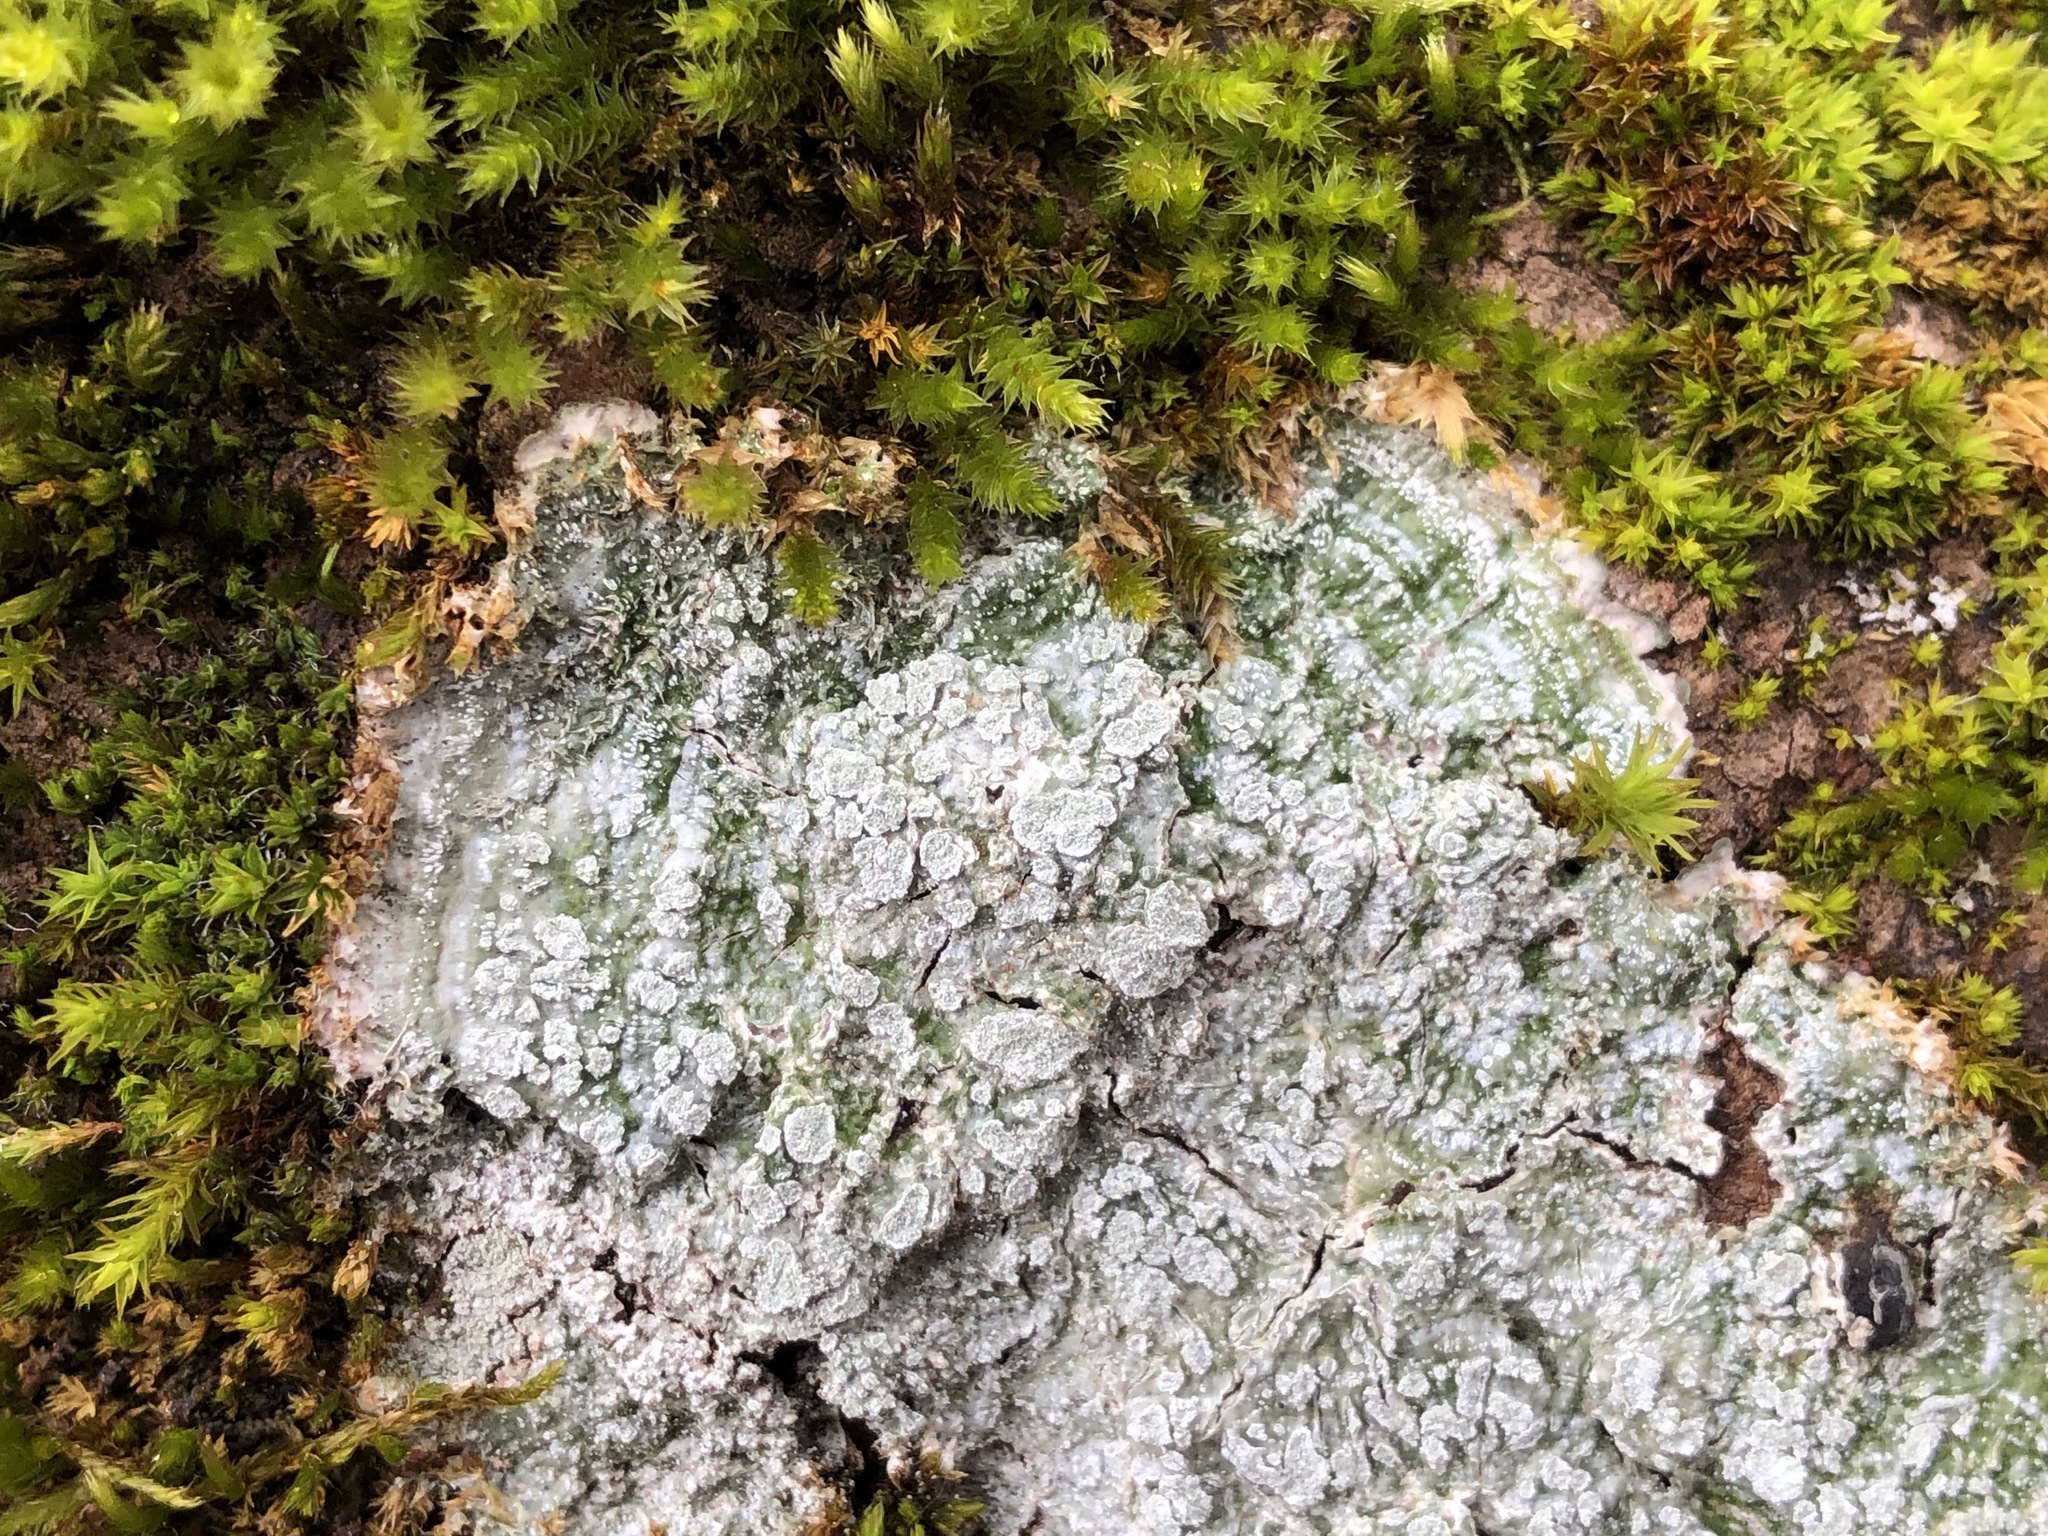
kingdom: Fungi
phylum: Ascomycota
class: Lecanoromycetes
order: Pertusariales
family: Pertusariaceae
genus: Lepra
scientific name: Lepra albescens
